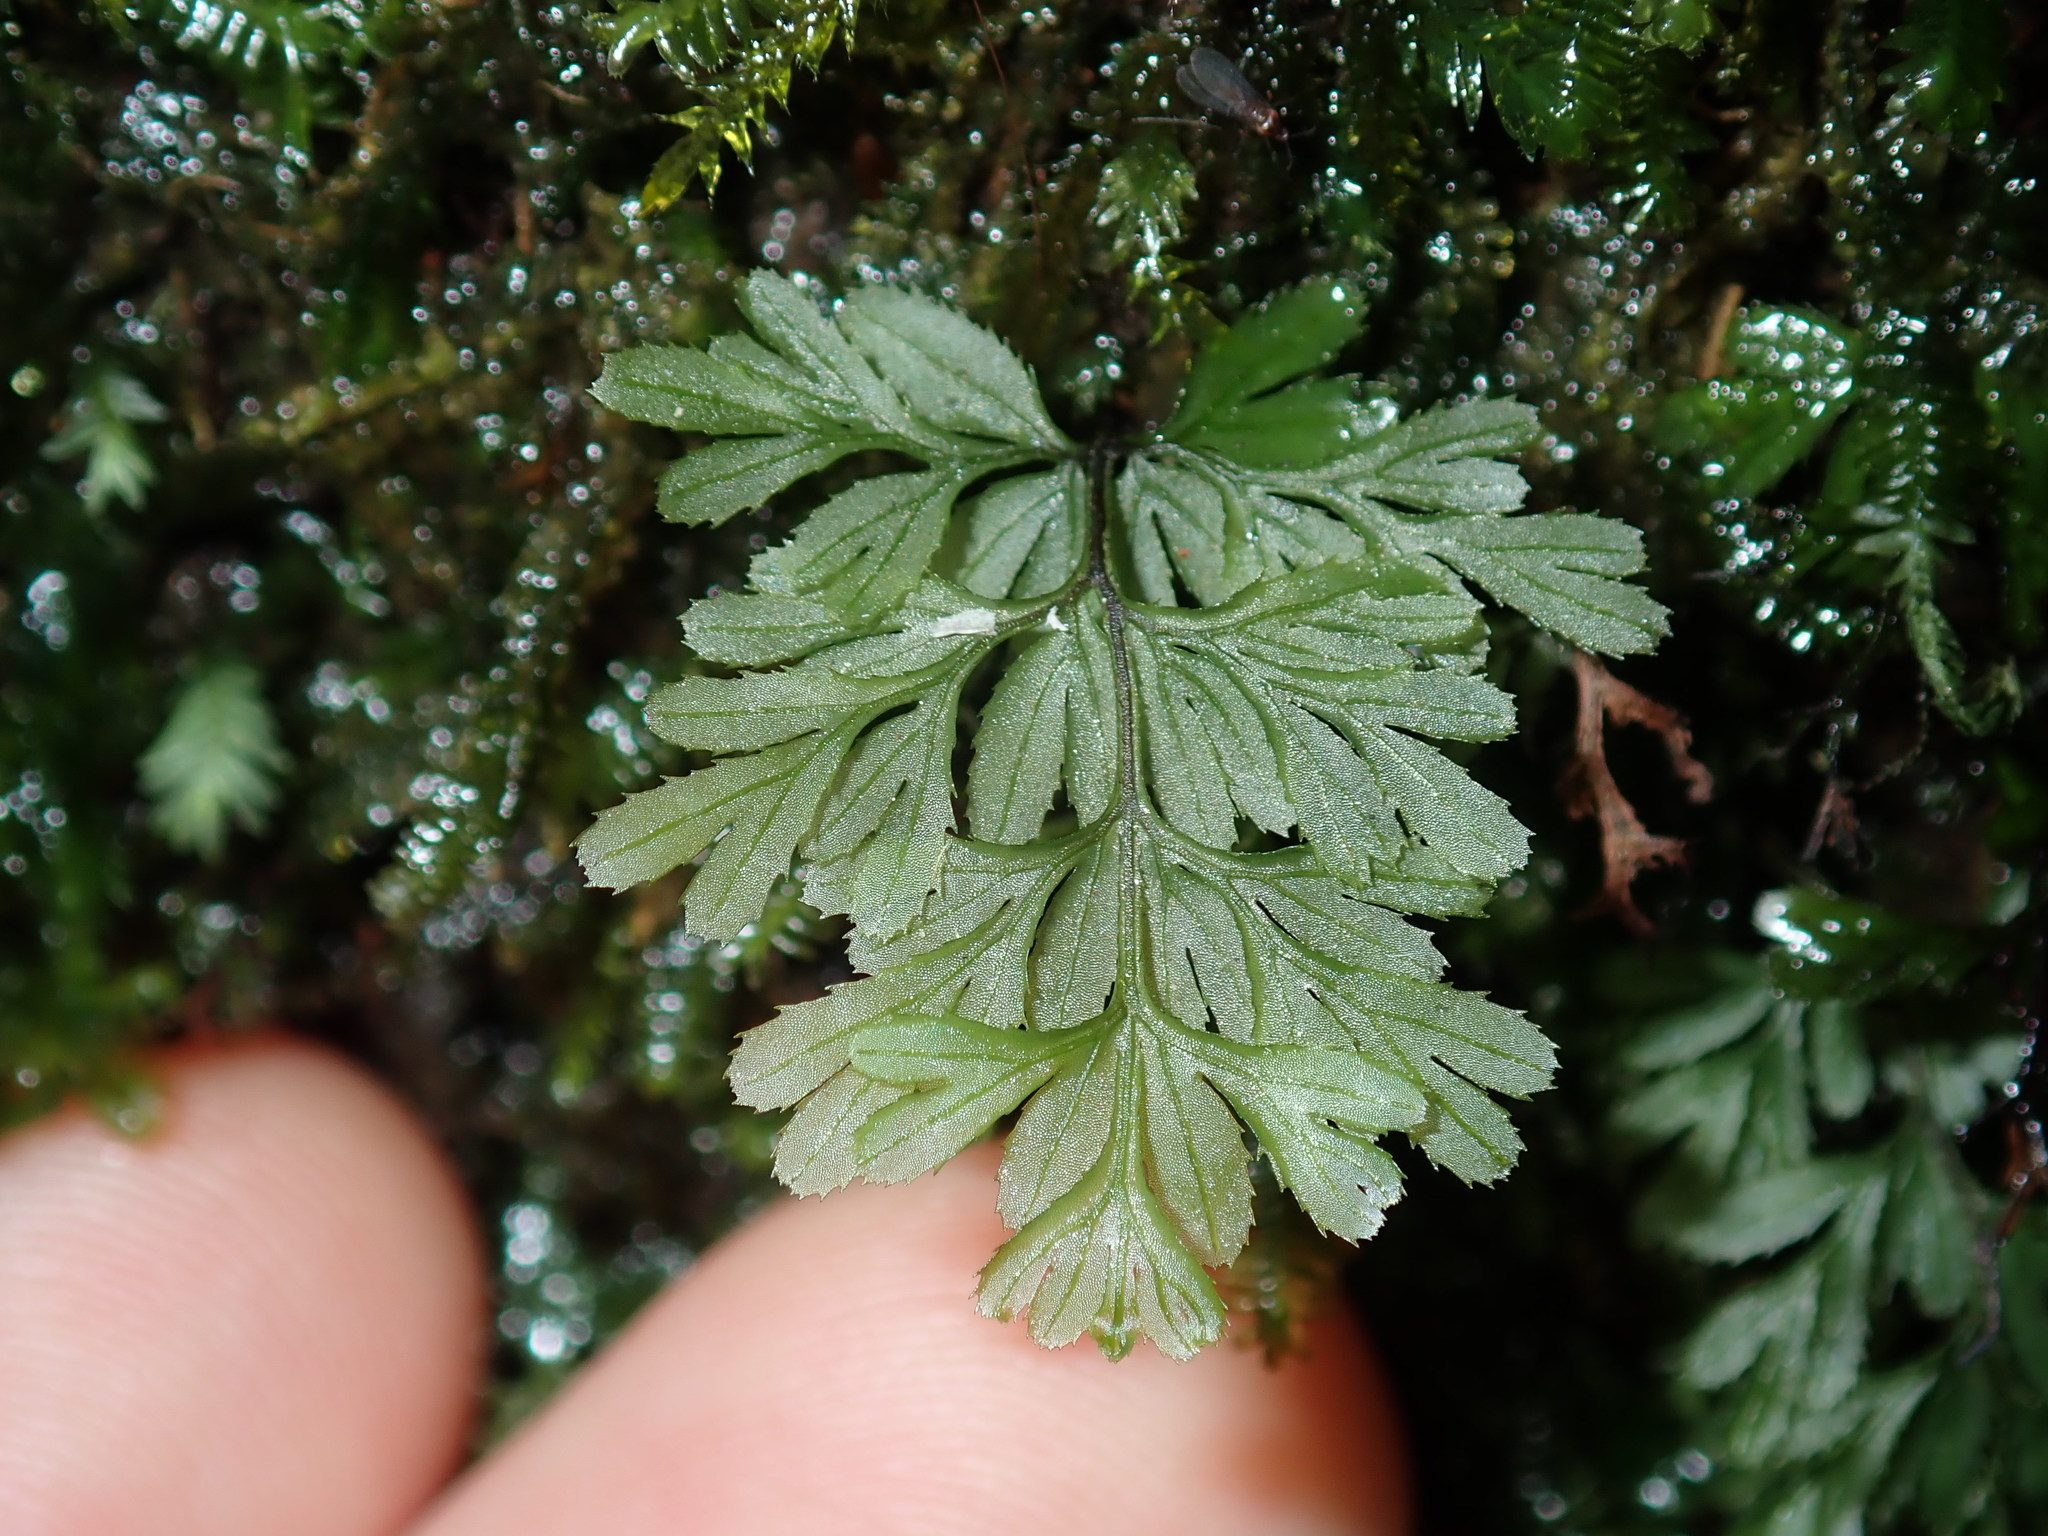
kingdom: Plantae
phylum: Tracheophyta
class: Polypodiopsida
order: Hymenophyllales
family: Hymenophyllaceae
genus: Hymenophyllum
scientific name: Hymenophyllum cupressiforme
